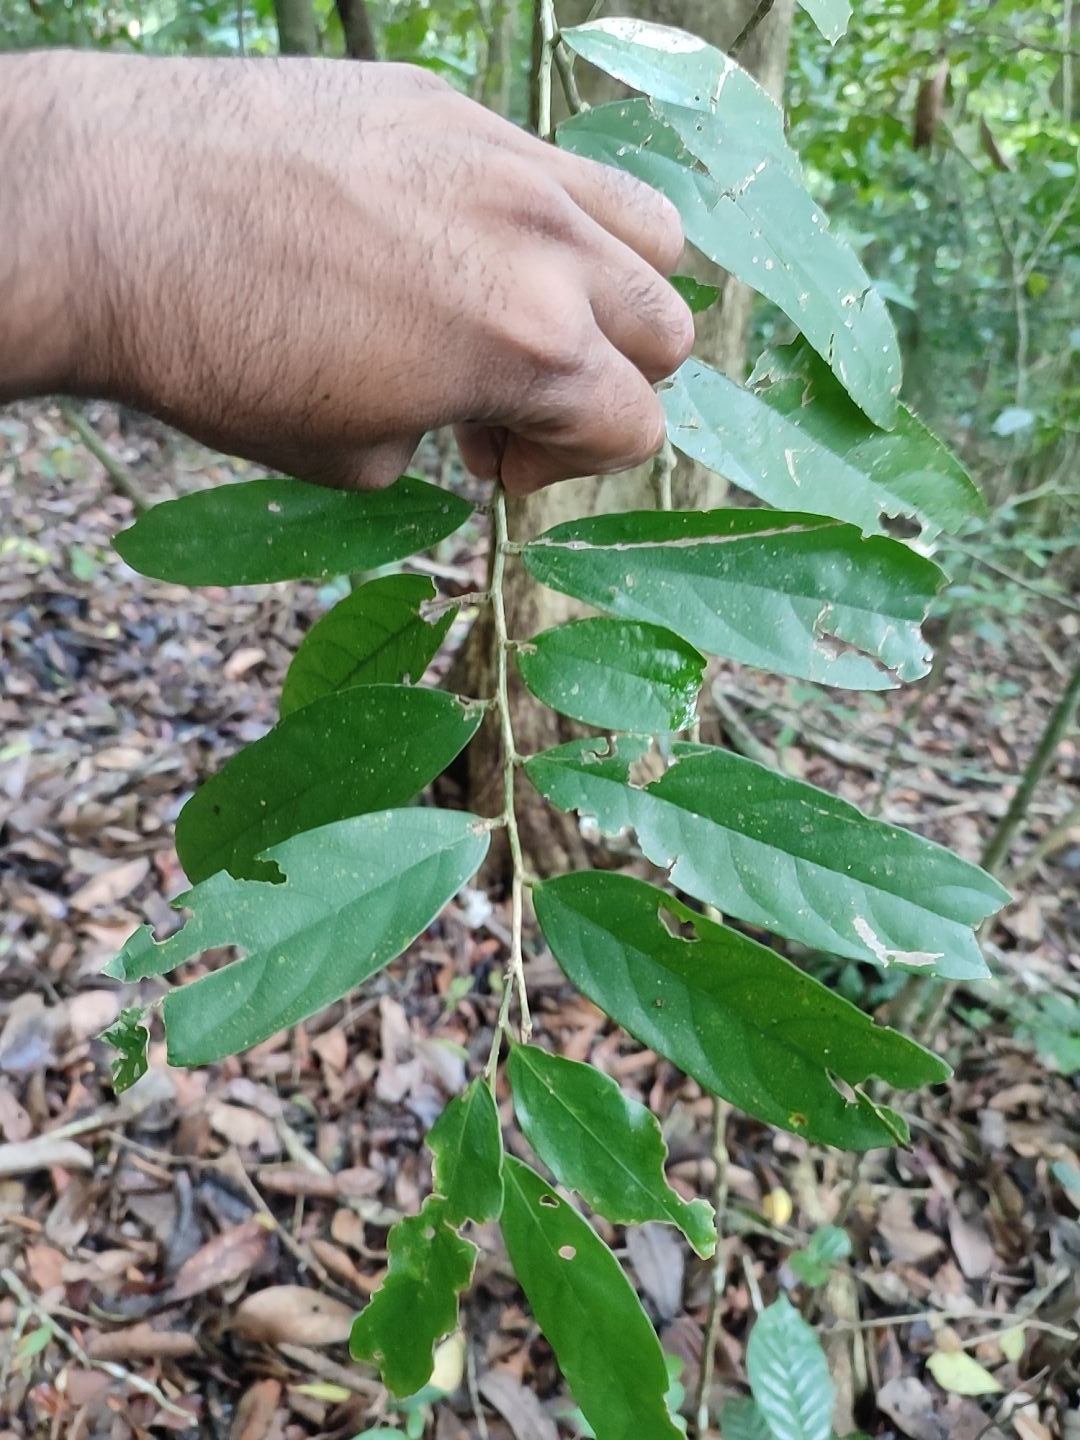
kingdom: Plantae
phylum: Tracheophyta
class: Magnoliopsida
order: Malpighiales
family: Putranjivaceae
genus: Drypetes
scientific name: Drypetes malabarica
